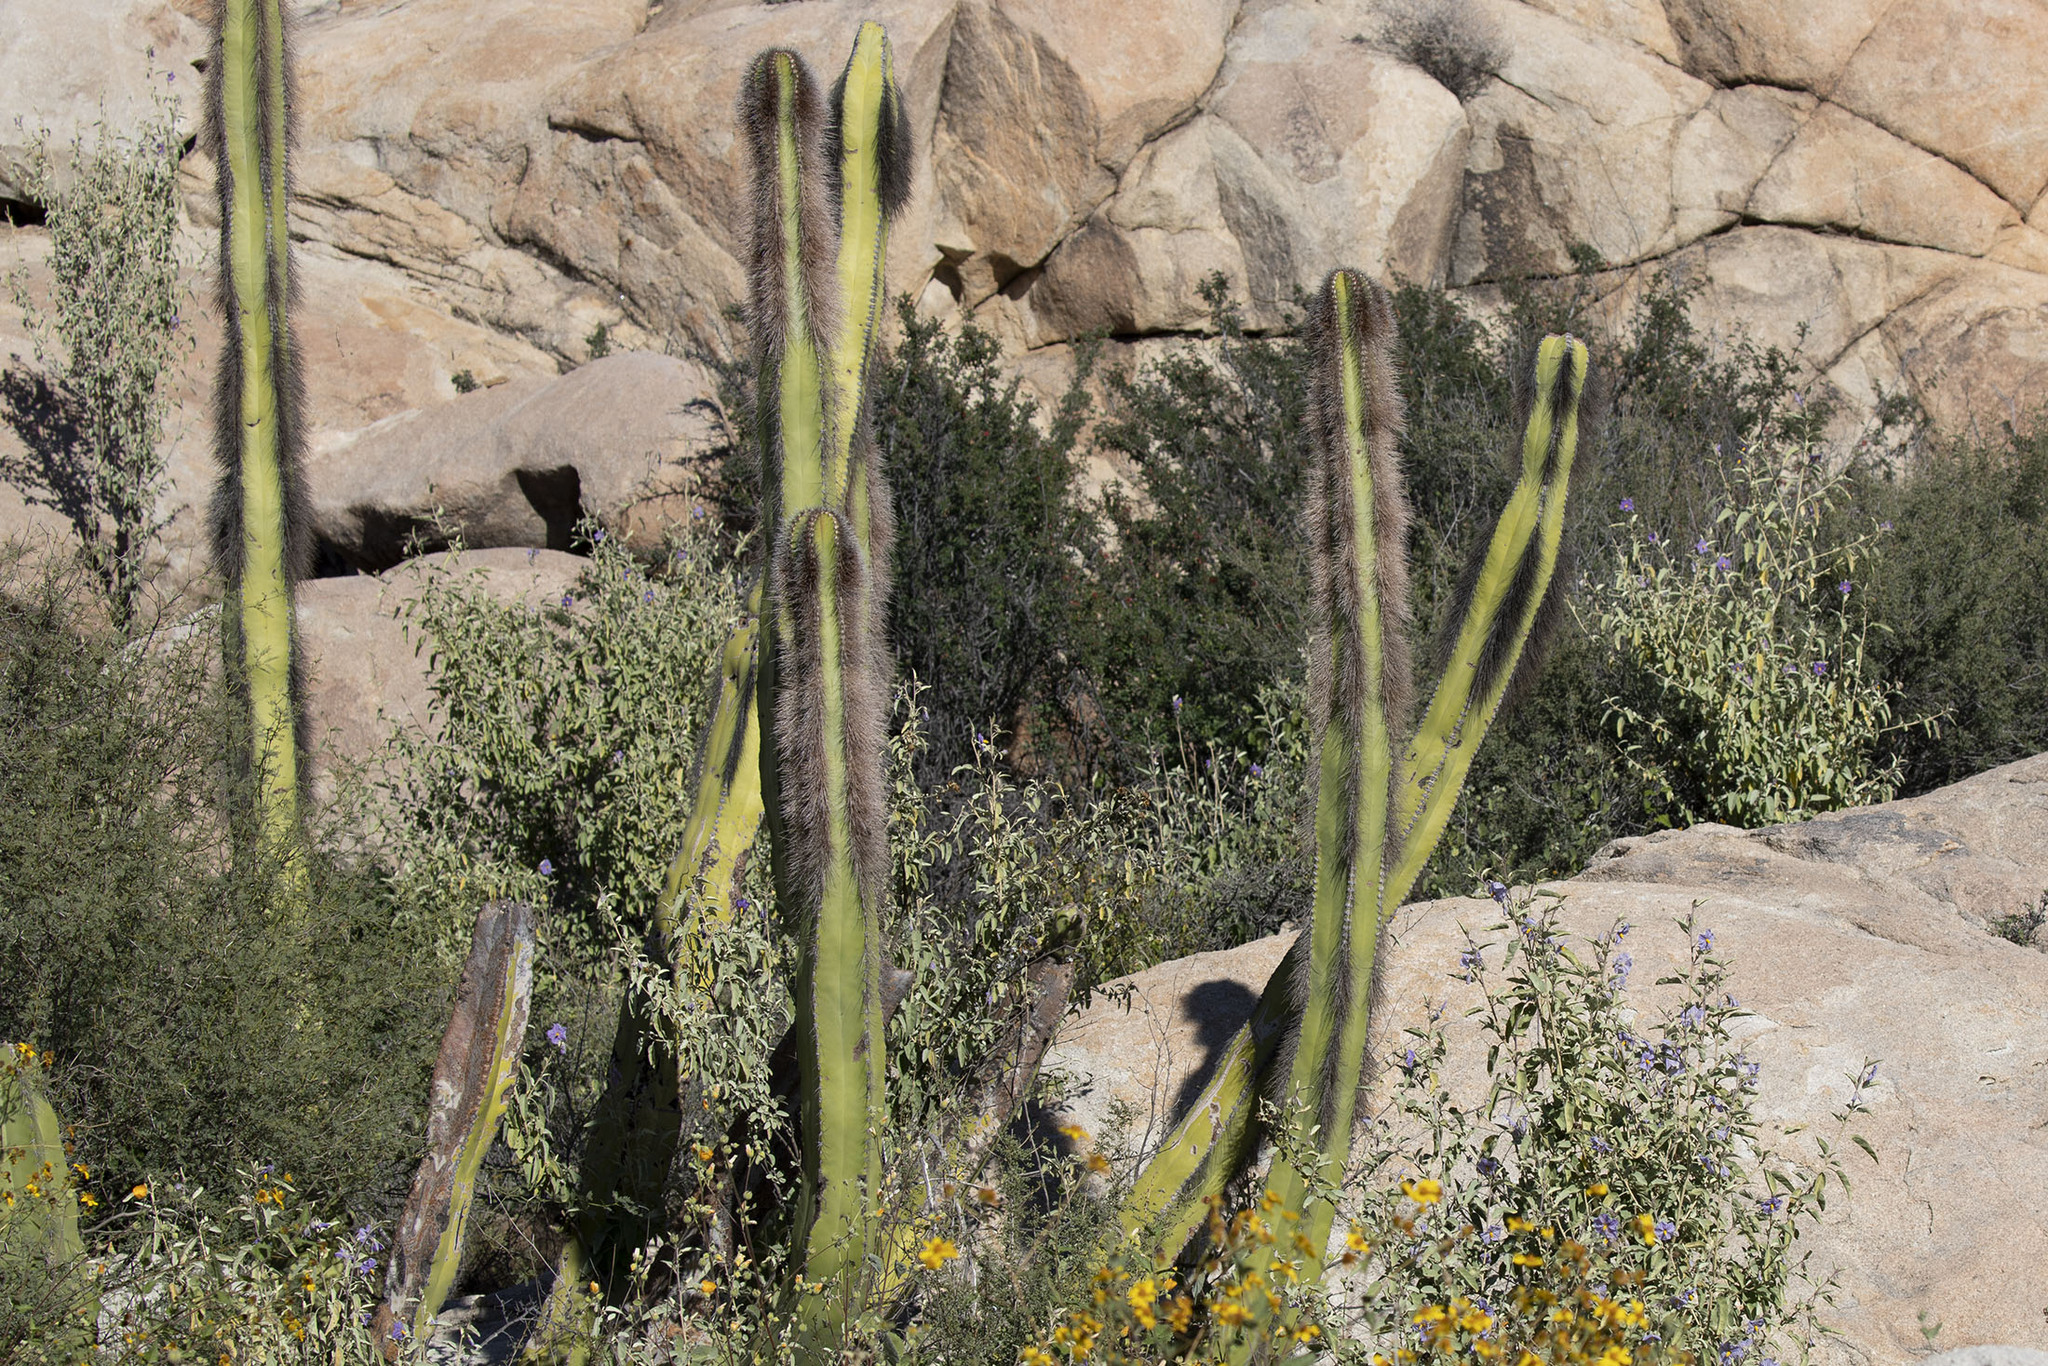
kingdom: Plantae
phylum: Tracheophyta
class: Magnoliopsida
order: Caryophyllales
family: Cactaceae
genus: Pachycereus
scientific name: Pachycereus schottii
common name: Senita cactus
